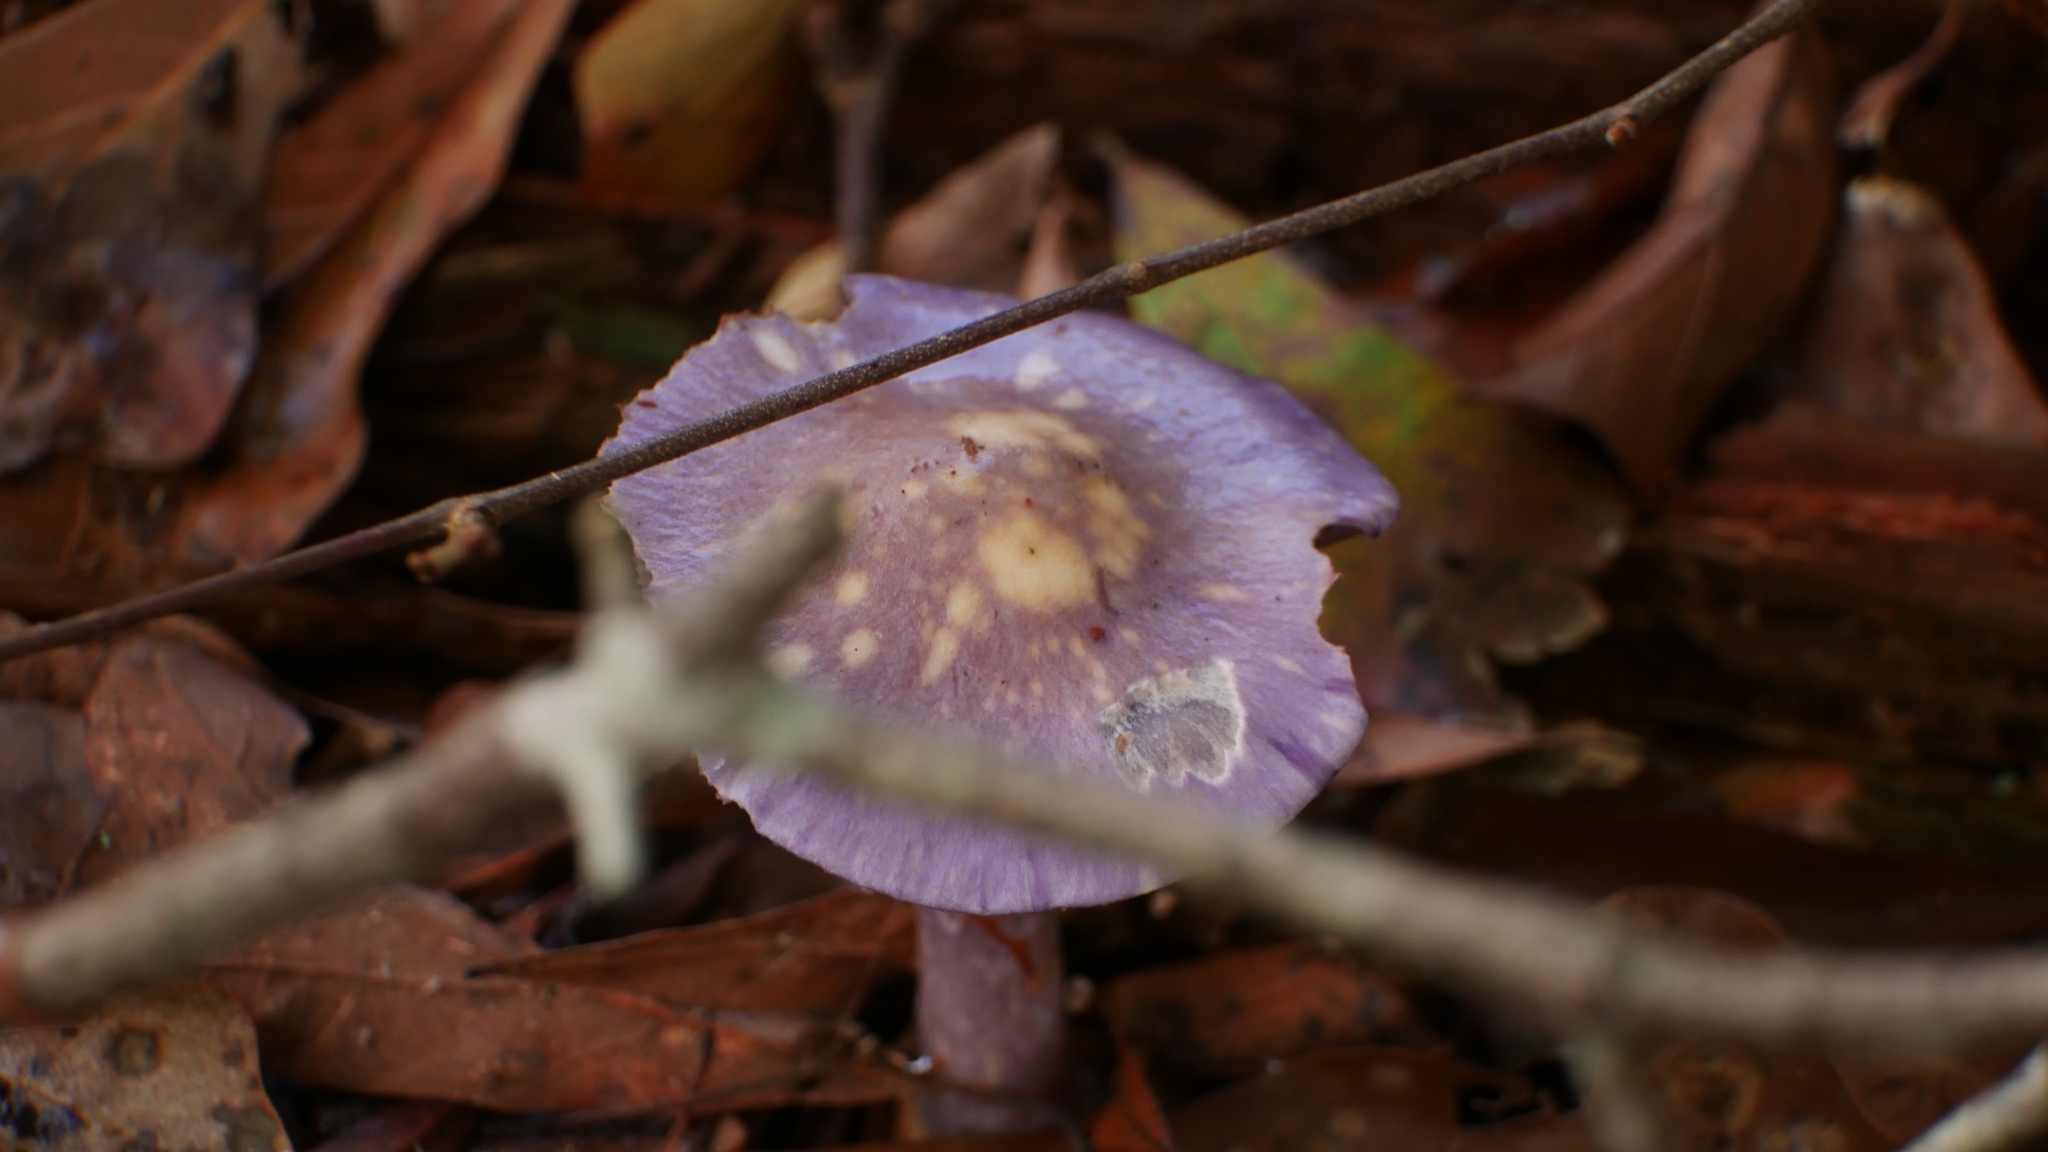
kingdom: Fungi
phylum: Basidiomycota
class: Agaricomycetes
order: Agaricales
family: Cortinariaceae
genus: Cortinarius
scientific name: Cortinarius iodes
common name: Viscid violet cort
